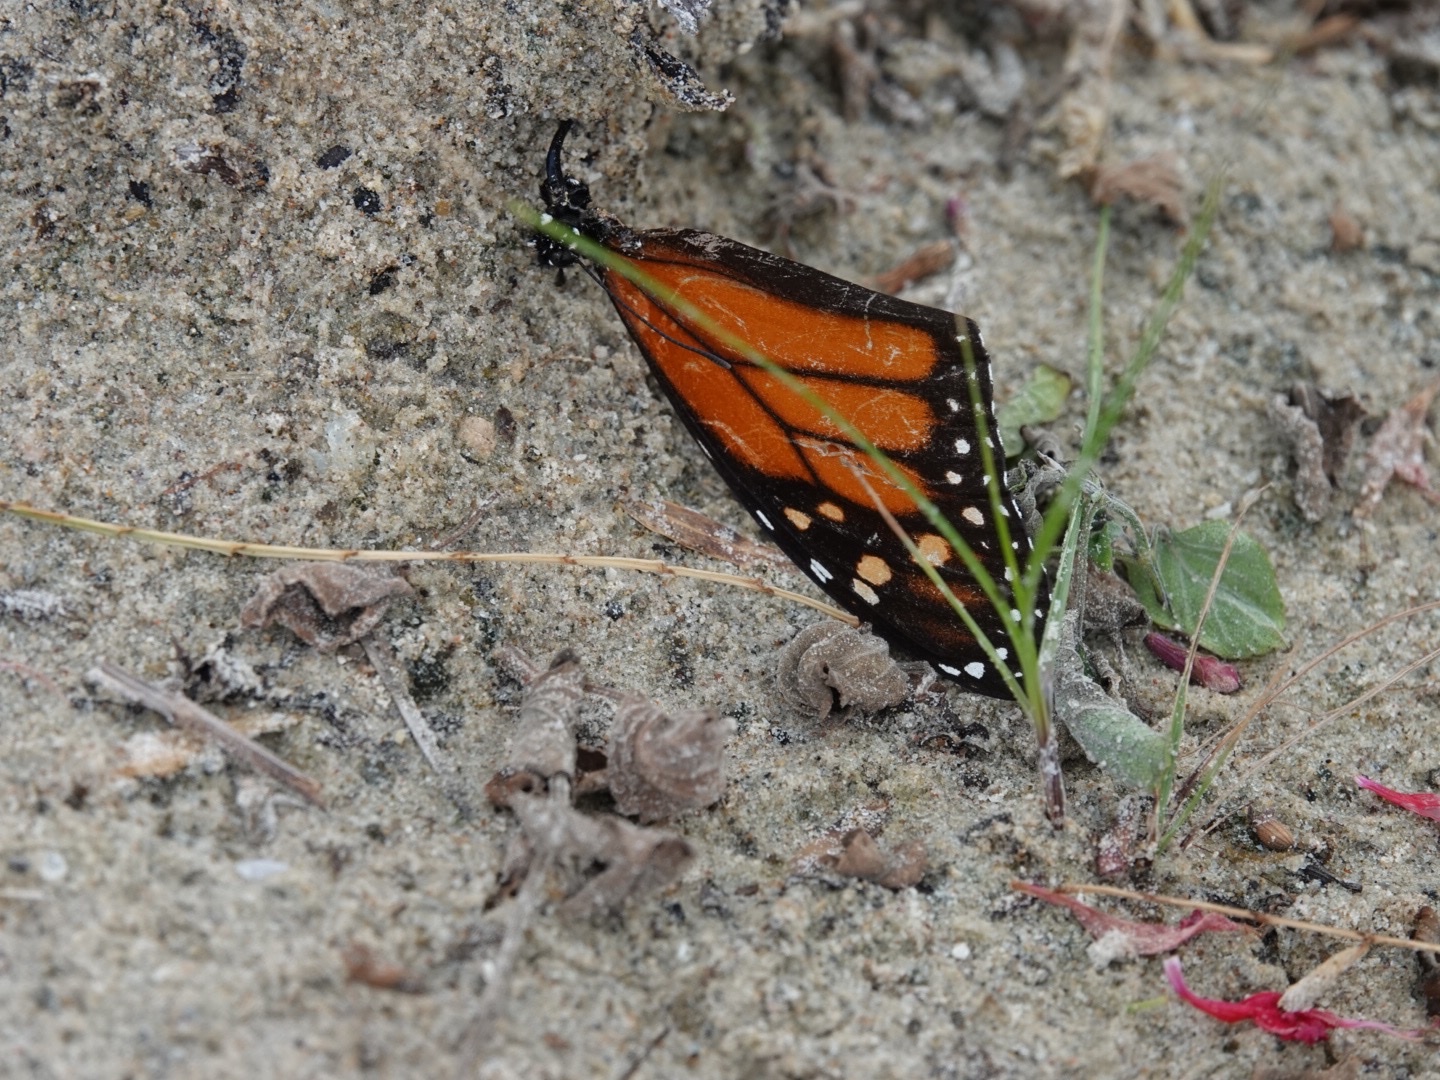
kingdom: Animalia
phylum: Arthropoda
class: Insecta
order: Lepidoptera
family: Nymphalidae
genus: Danaus
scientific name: Danaus plexippus
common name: Monarch
